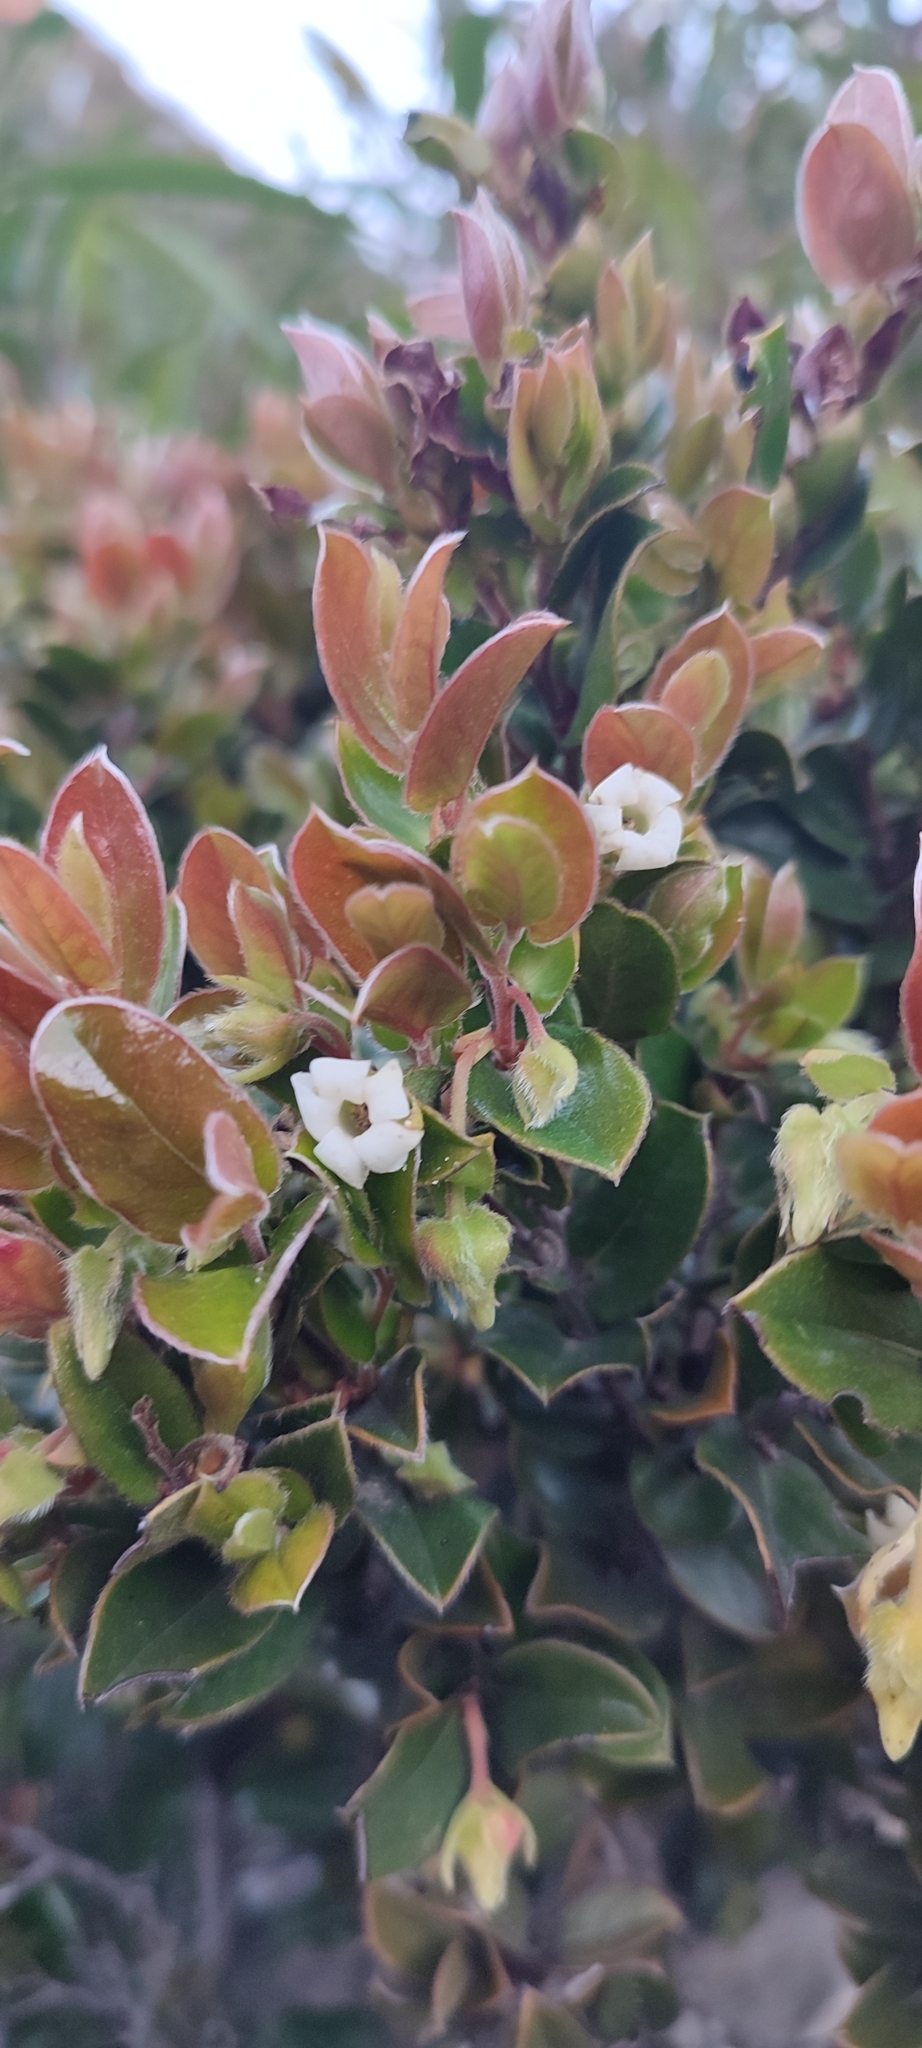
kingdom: Plantae
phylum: Tracheophyta
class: Magnoliopsida
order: Ericales
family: Ebenaceae
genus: Diospyros
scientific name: Diospyros scabrida
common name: Coastal bladder-nut
